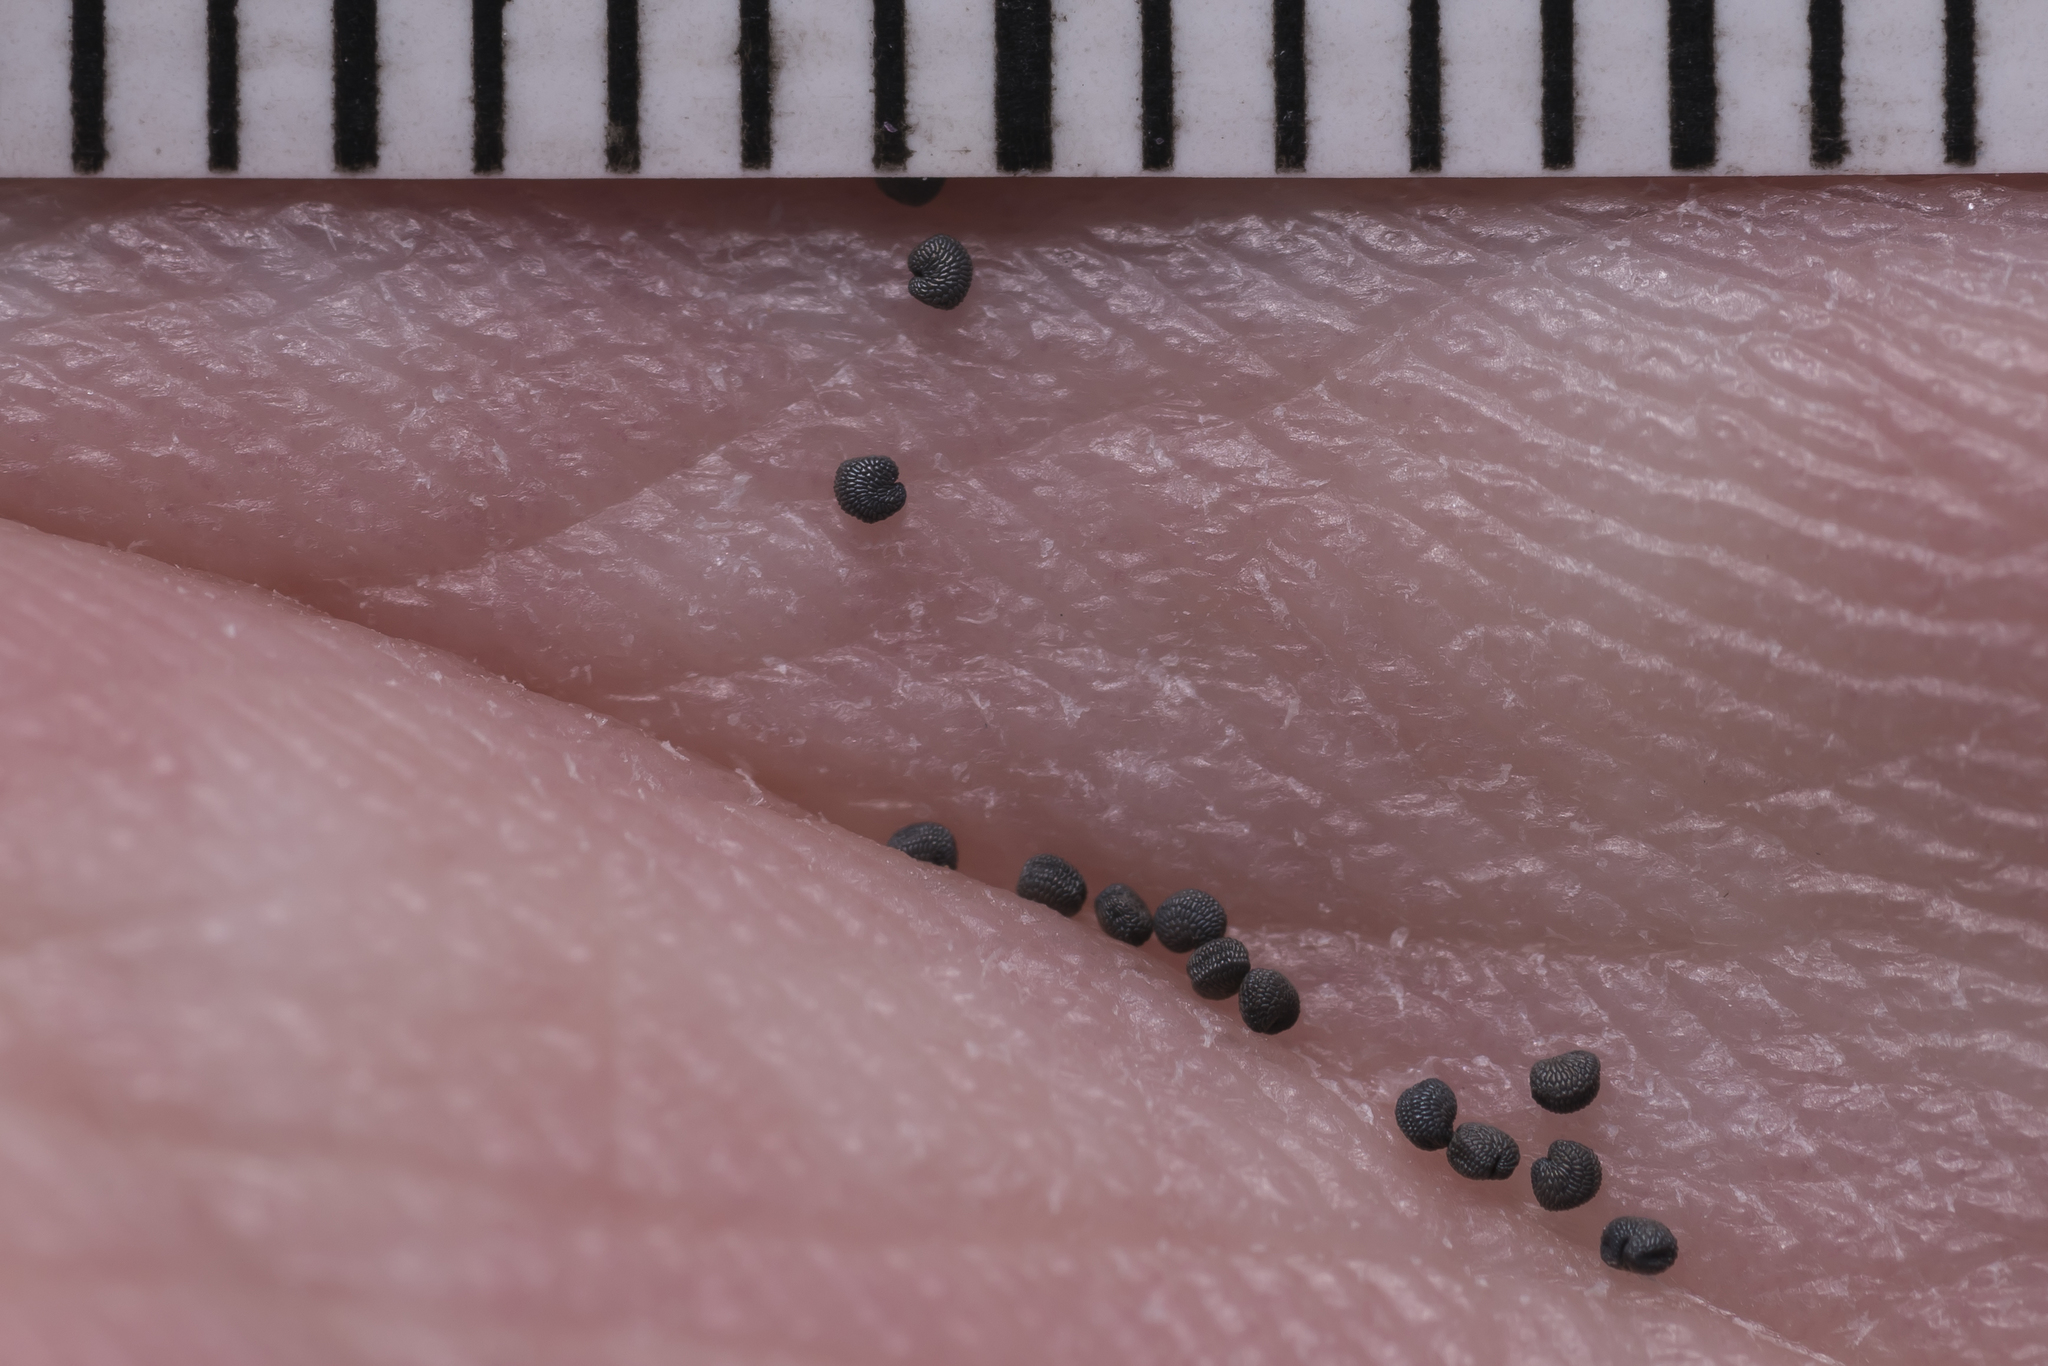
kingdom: Plantae
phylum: Tracheophyta
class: Magnoliopsida
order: Caryophyllales
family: Caryophyllaceae
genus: Arenaria
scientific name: Arenaria serpyllifolia
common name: Thyme-leaved sandwort
